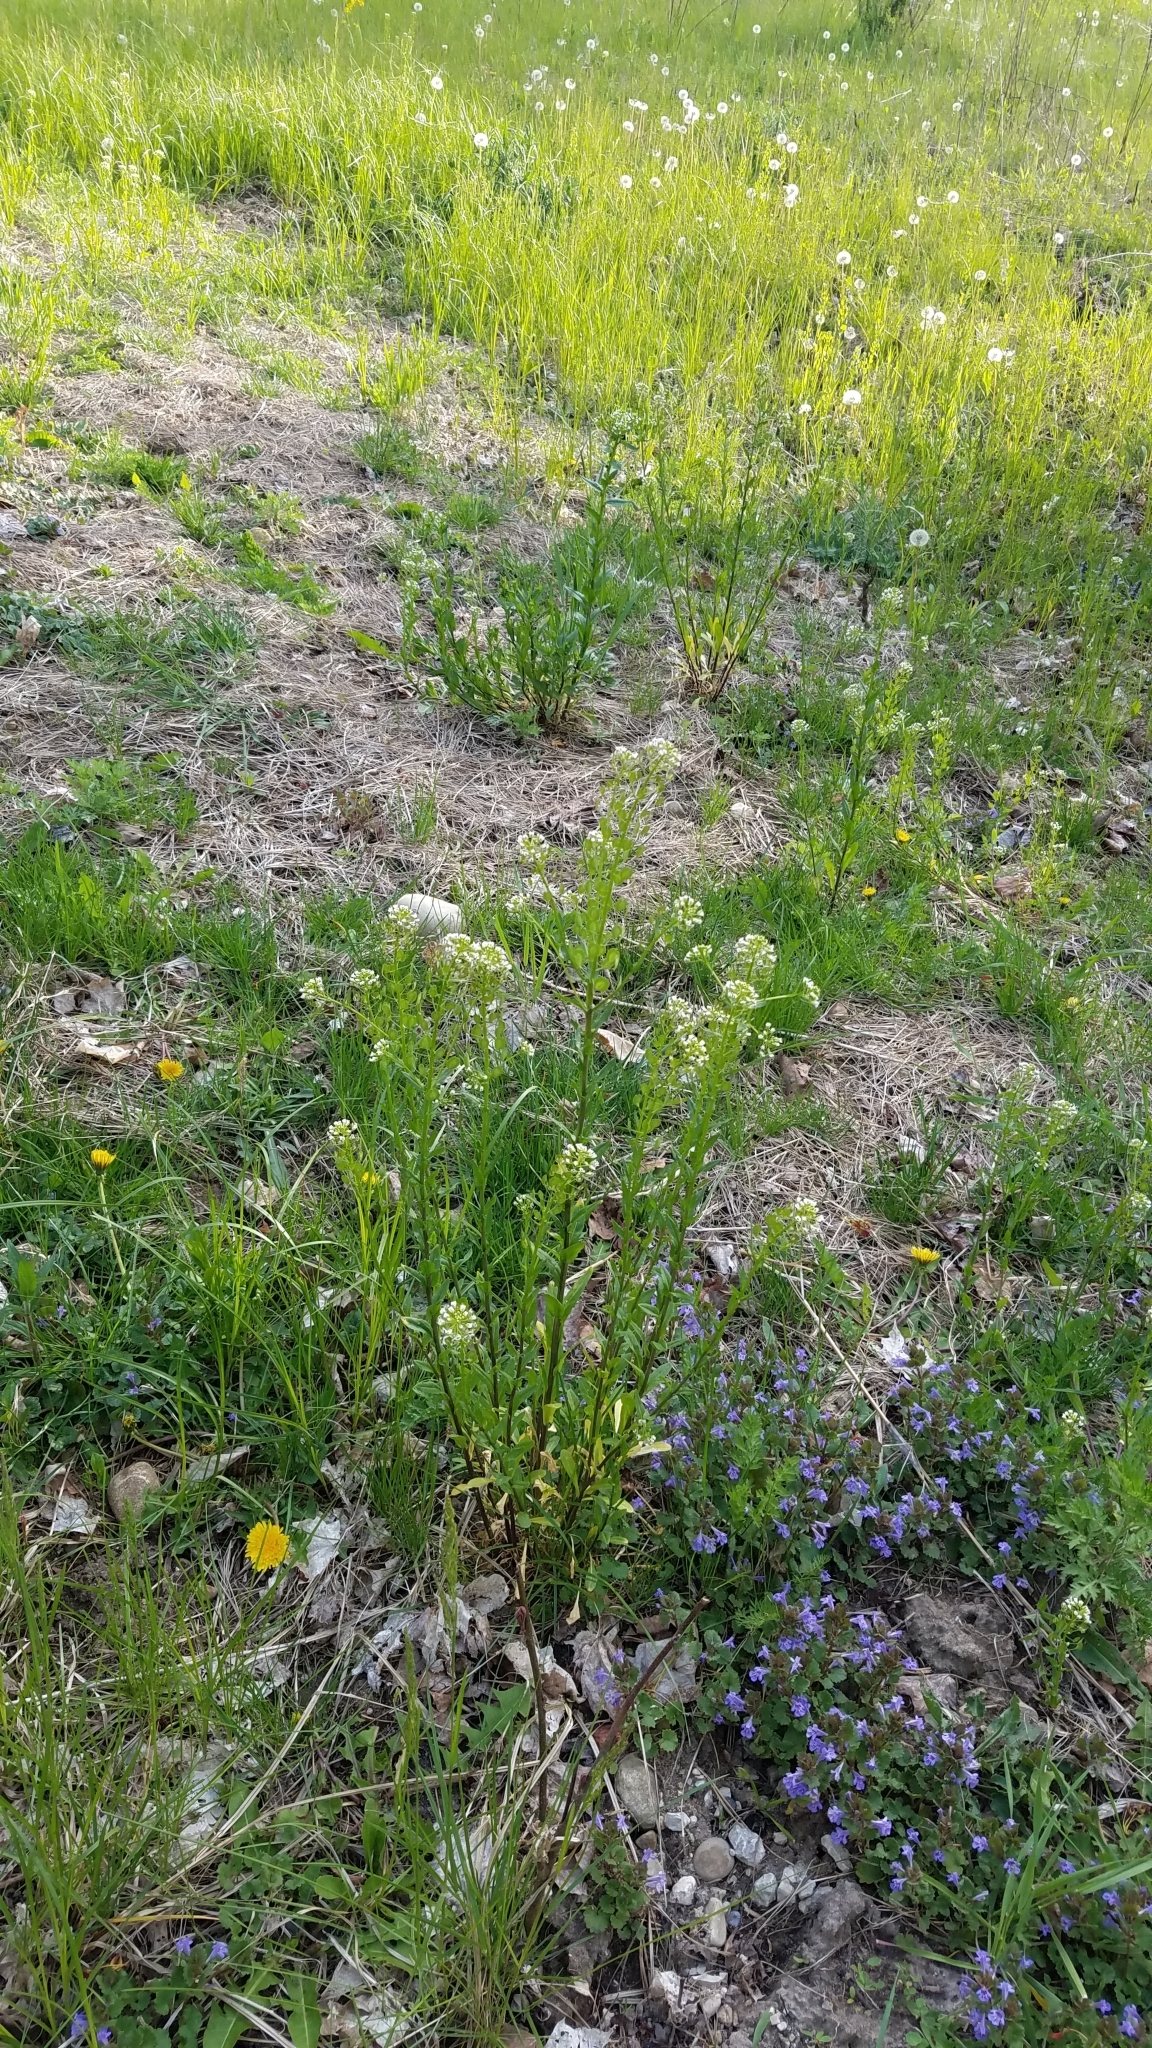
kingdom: Plantae
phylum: Tracheophyta
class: Magnoliopsida
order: Brassicales
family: Brassicaceae
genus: Thlaspi
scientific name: Thlaspi arvense
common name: Field pennycress
